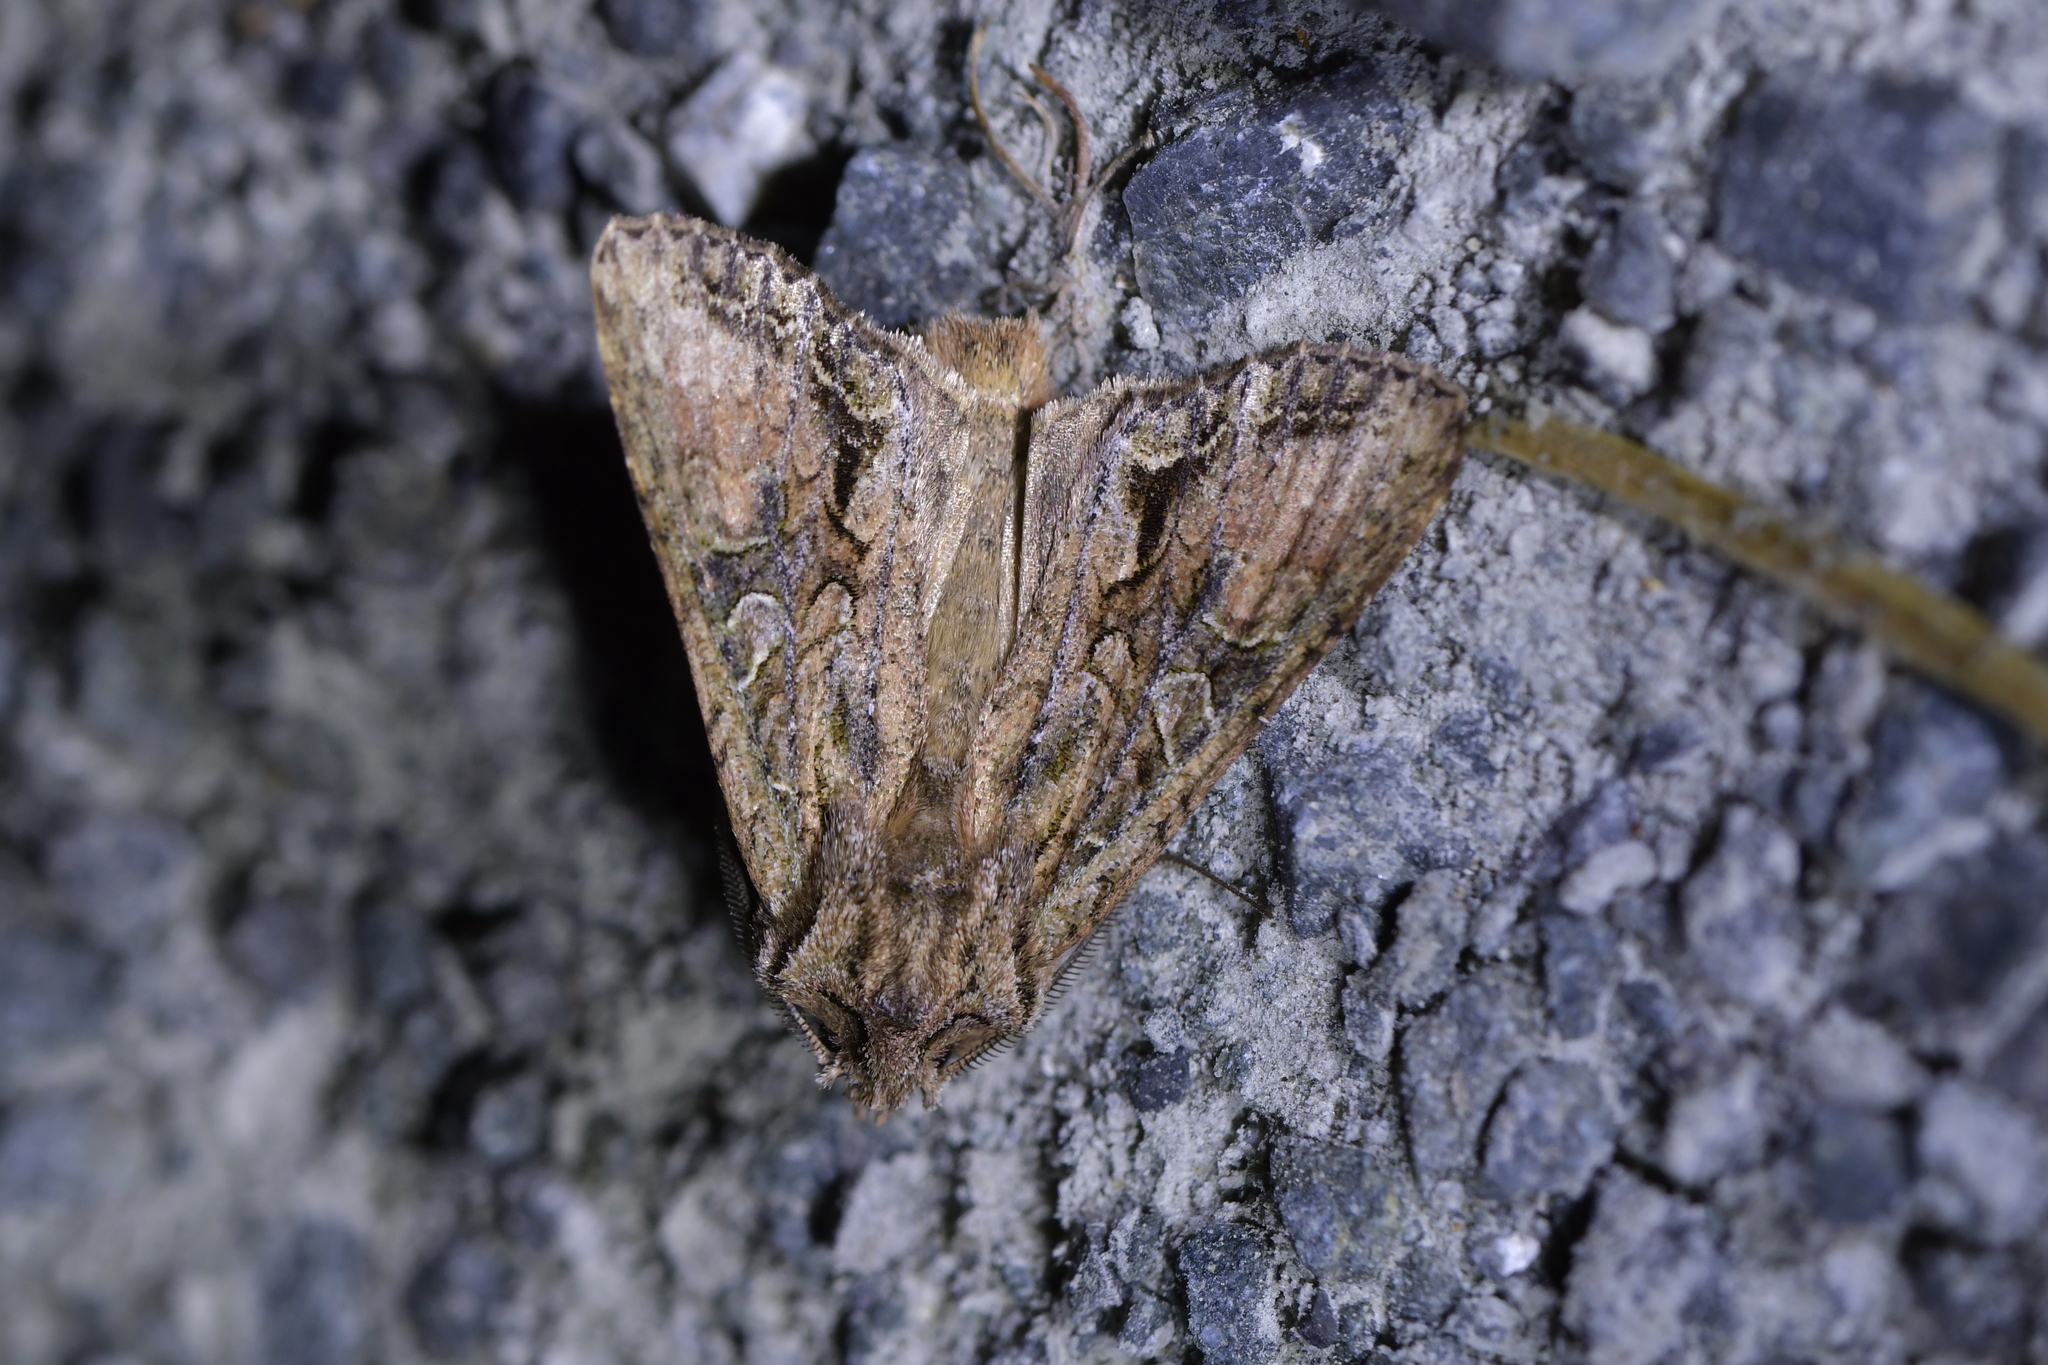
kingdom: Animalia
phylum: Arthropoda
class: Insecta
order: Lepidoptera
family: Noctuidae
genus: Ichneutica
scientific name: Ichneutica mutans
